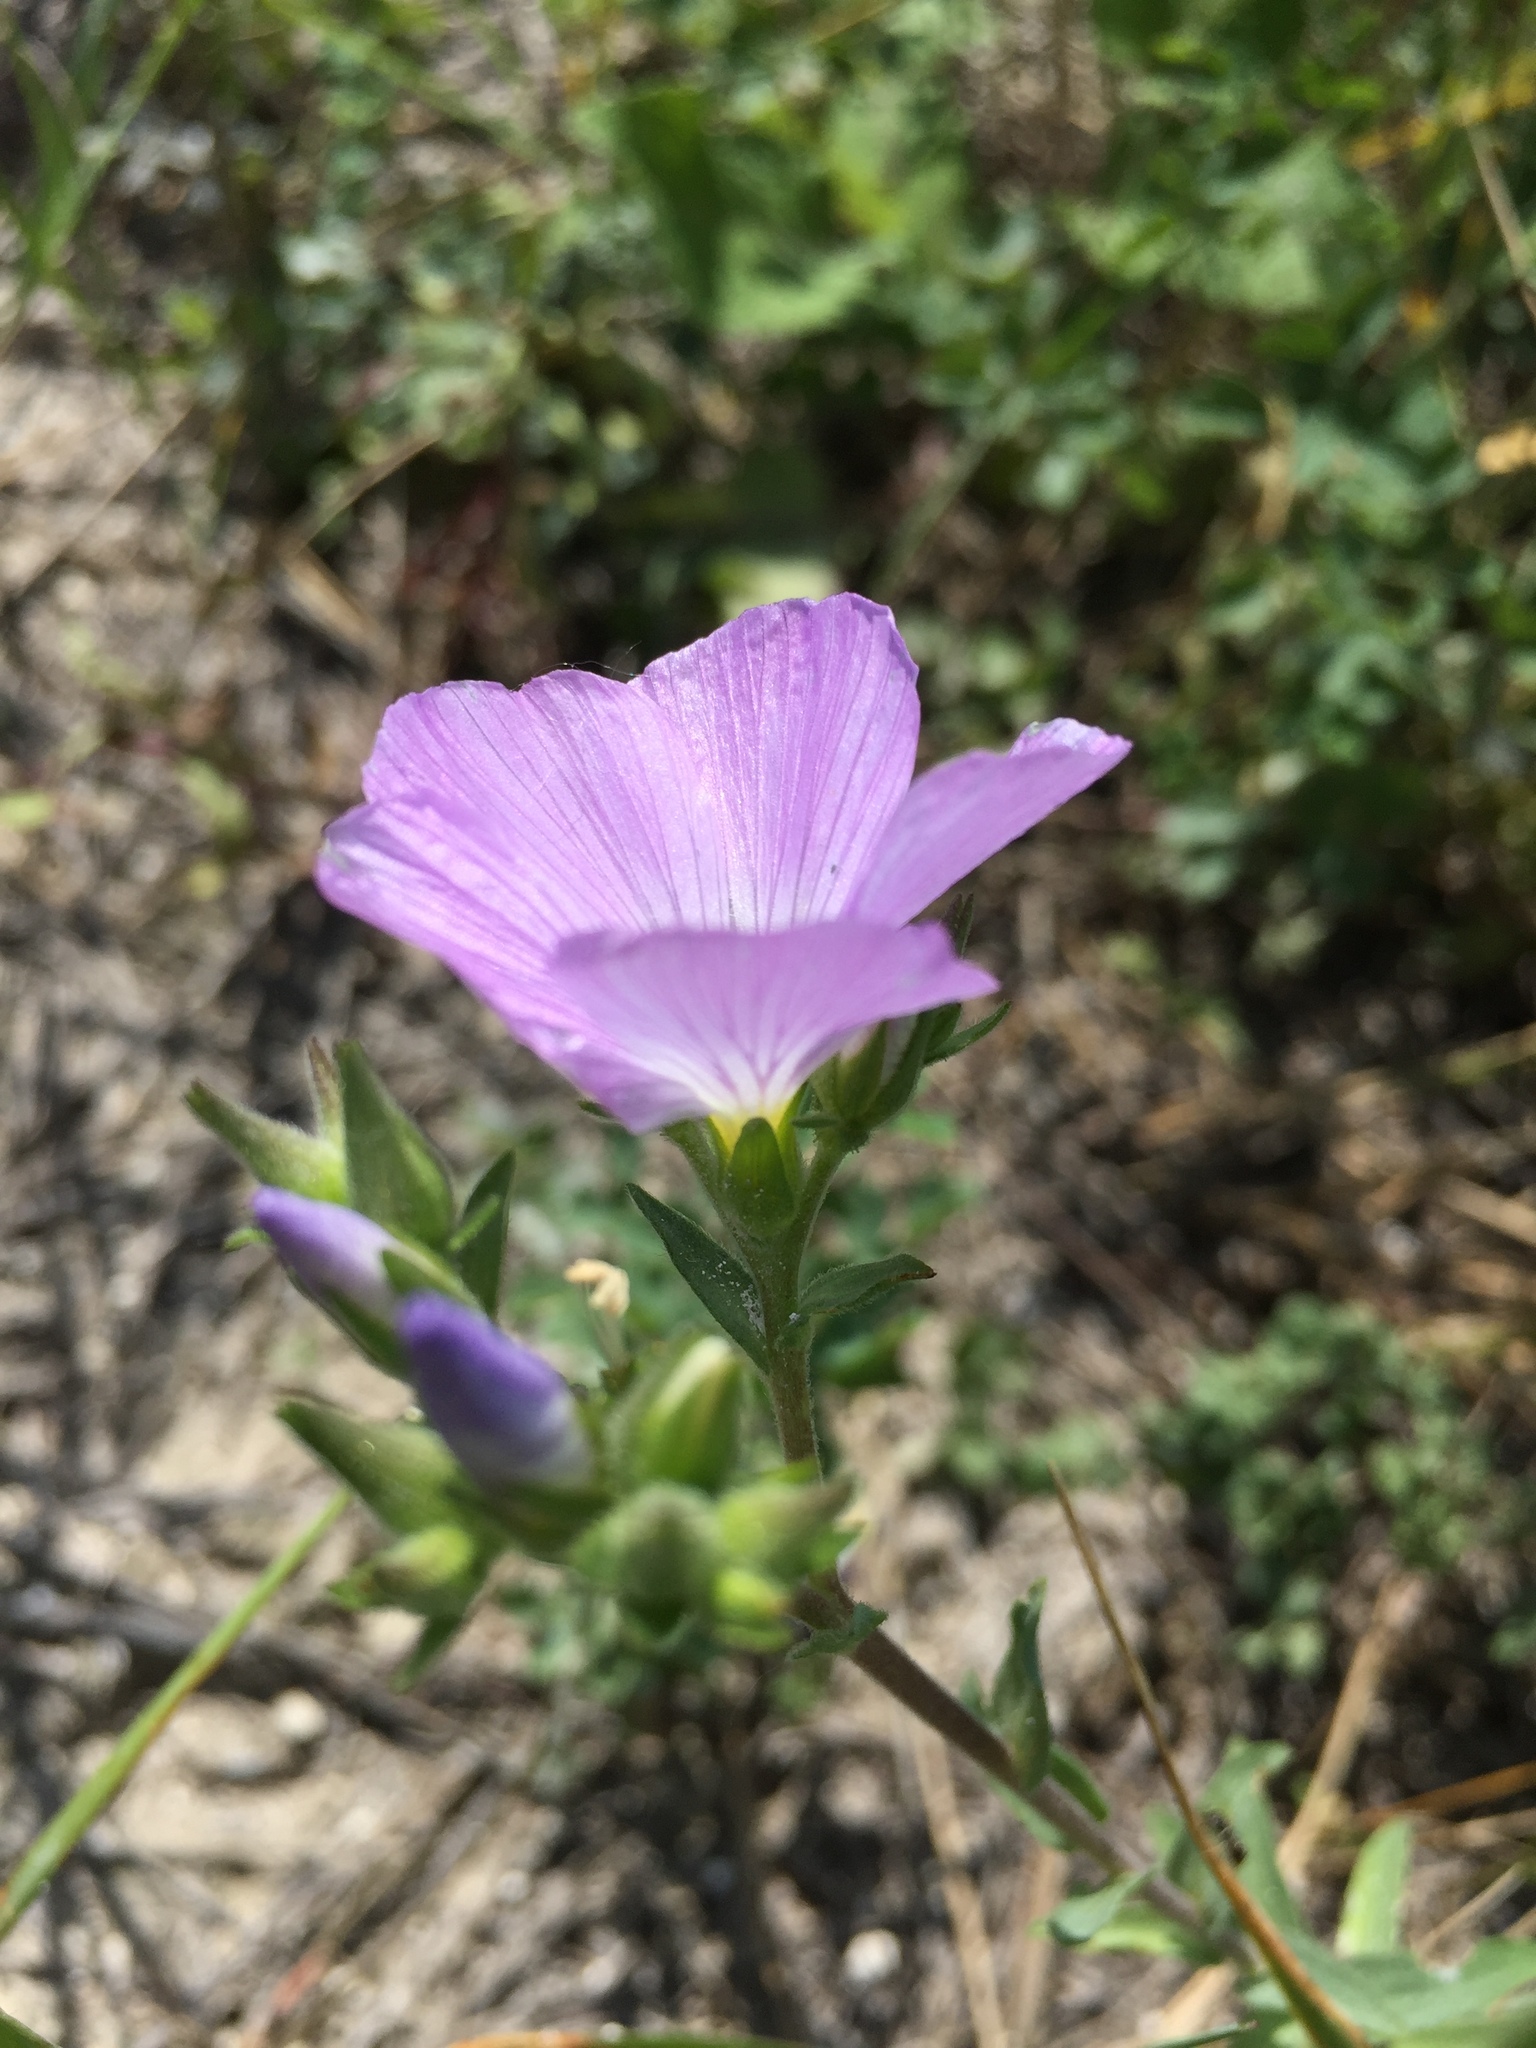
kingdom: Plantae
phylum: Tracheophyta
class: Magnoliopsida
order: Malpighiales
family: Linaceae
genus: Linum
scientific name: Linum hirsutum
